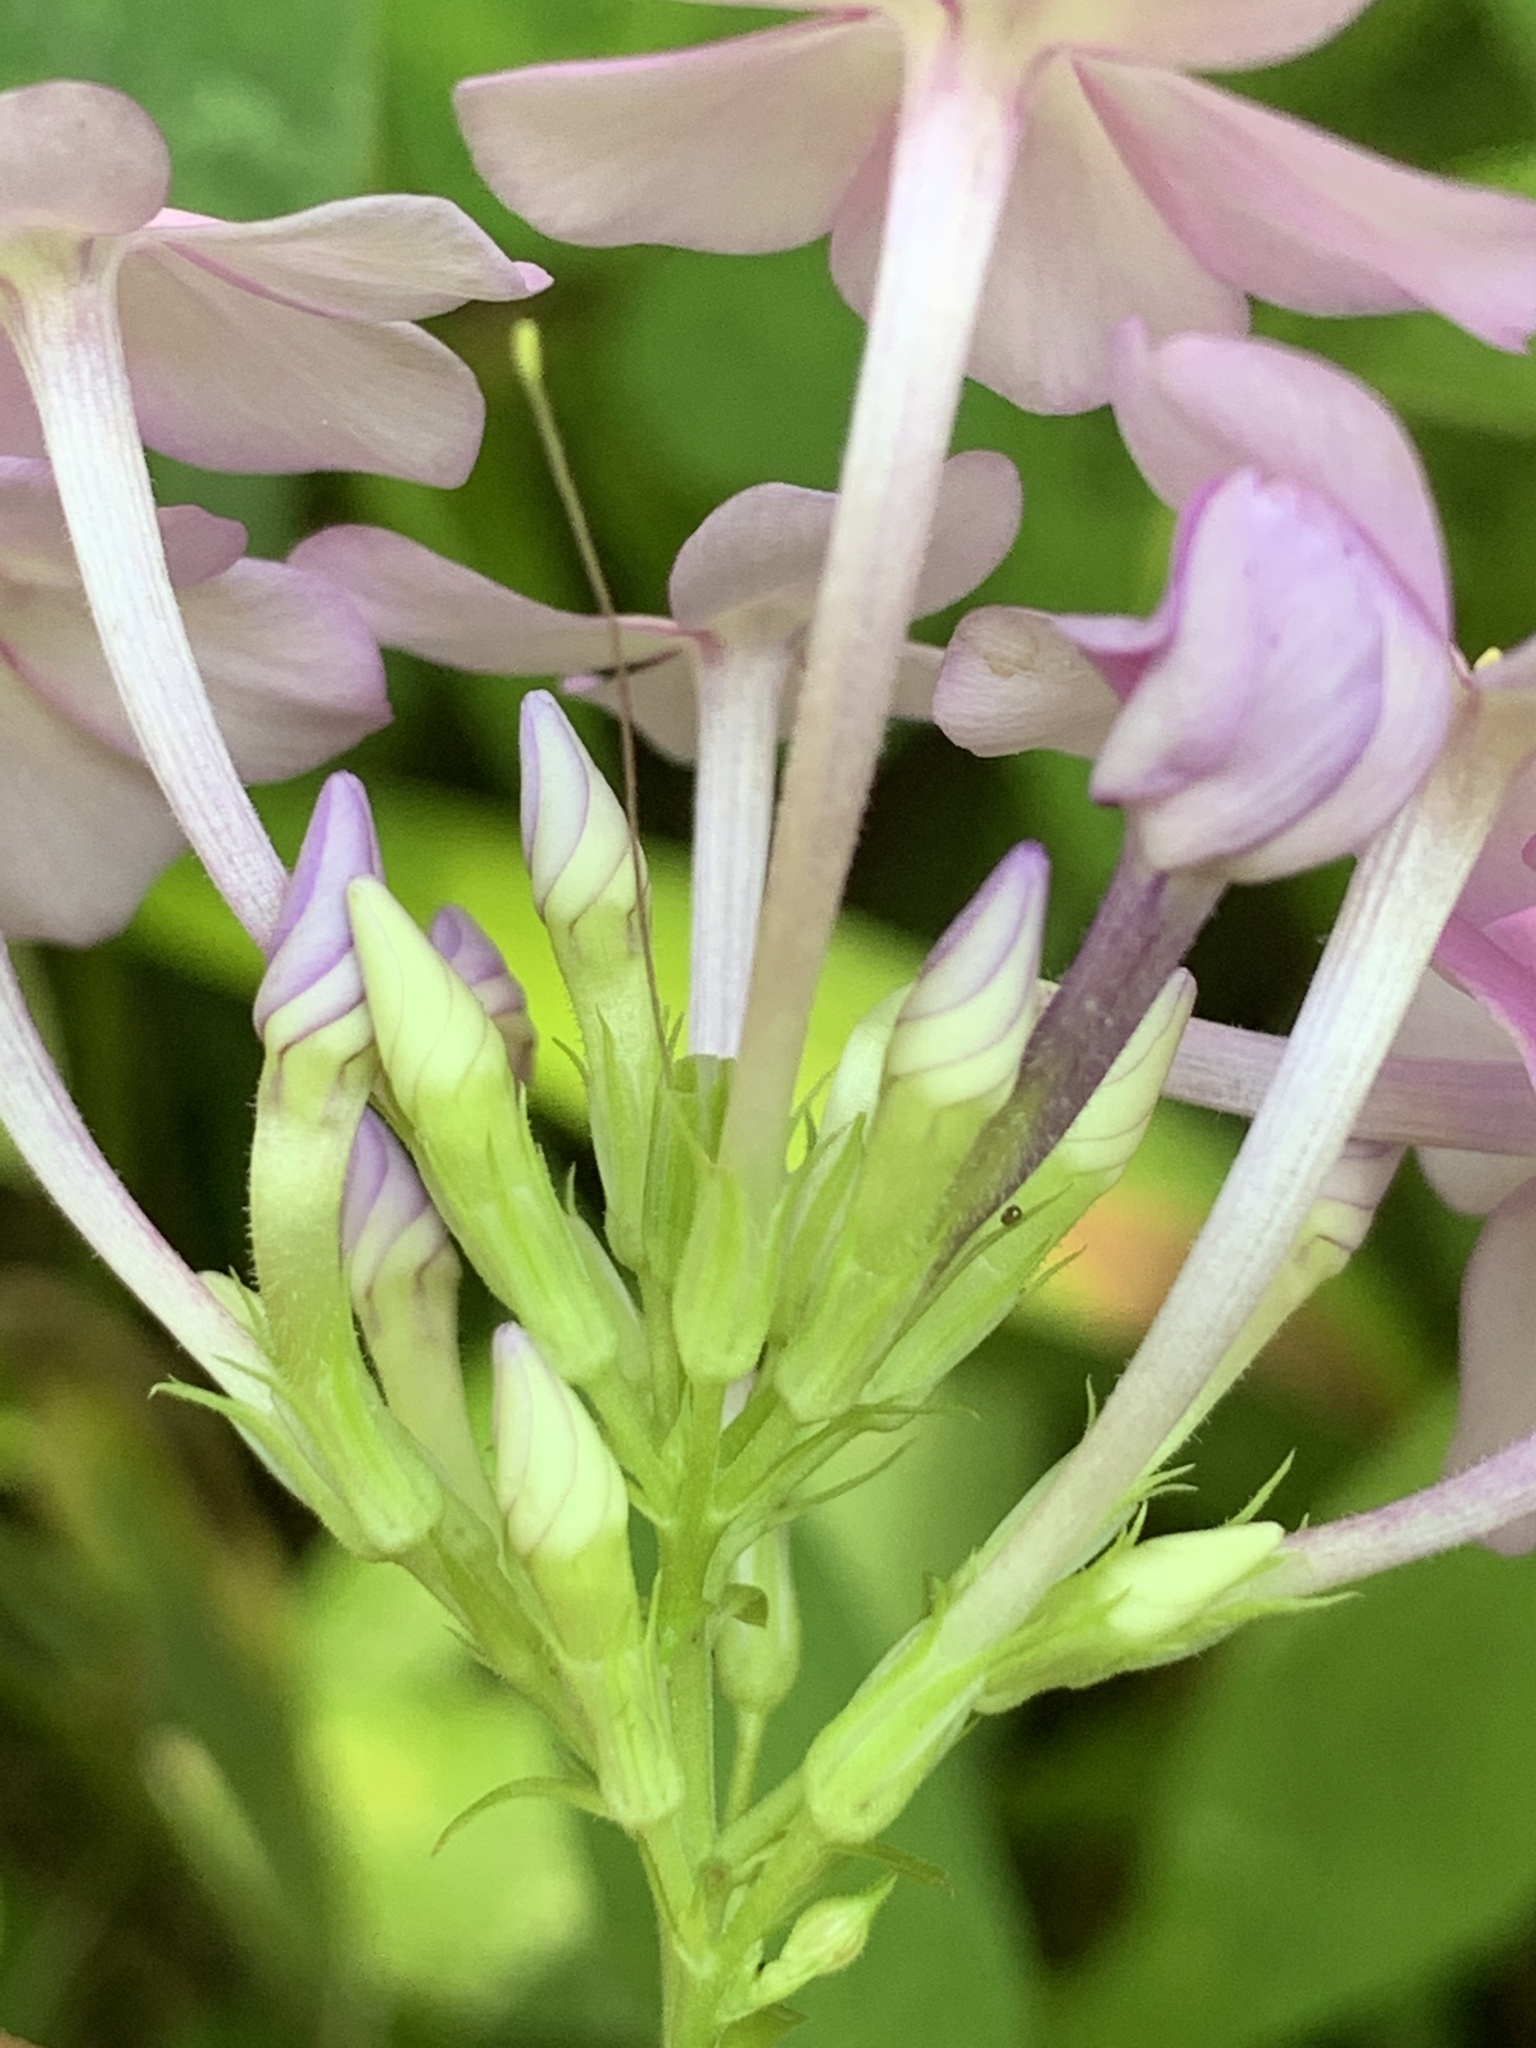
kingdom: Plantae
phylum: Tracheophyta
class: Magnoliopsida
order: Ericales
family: Polemoniaceae
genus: Phlox
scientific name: Phlox paniculata
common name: Fall phlox
